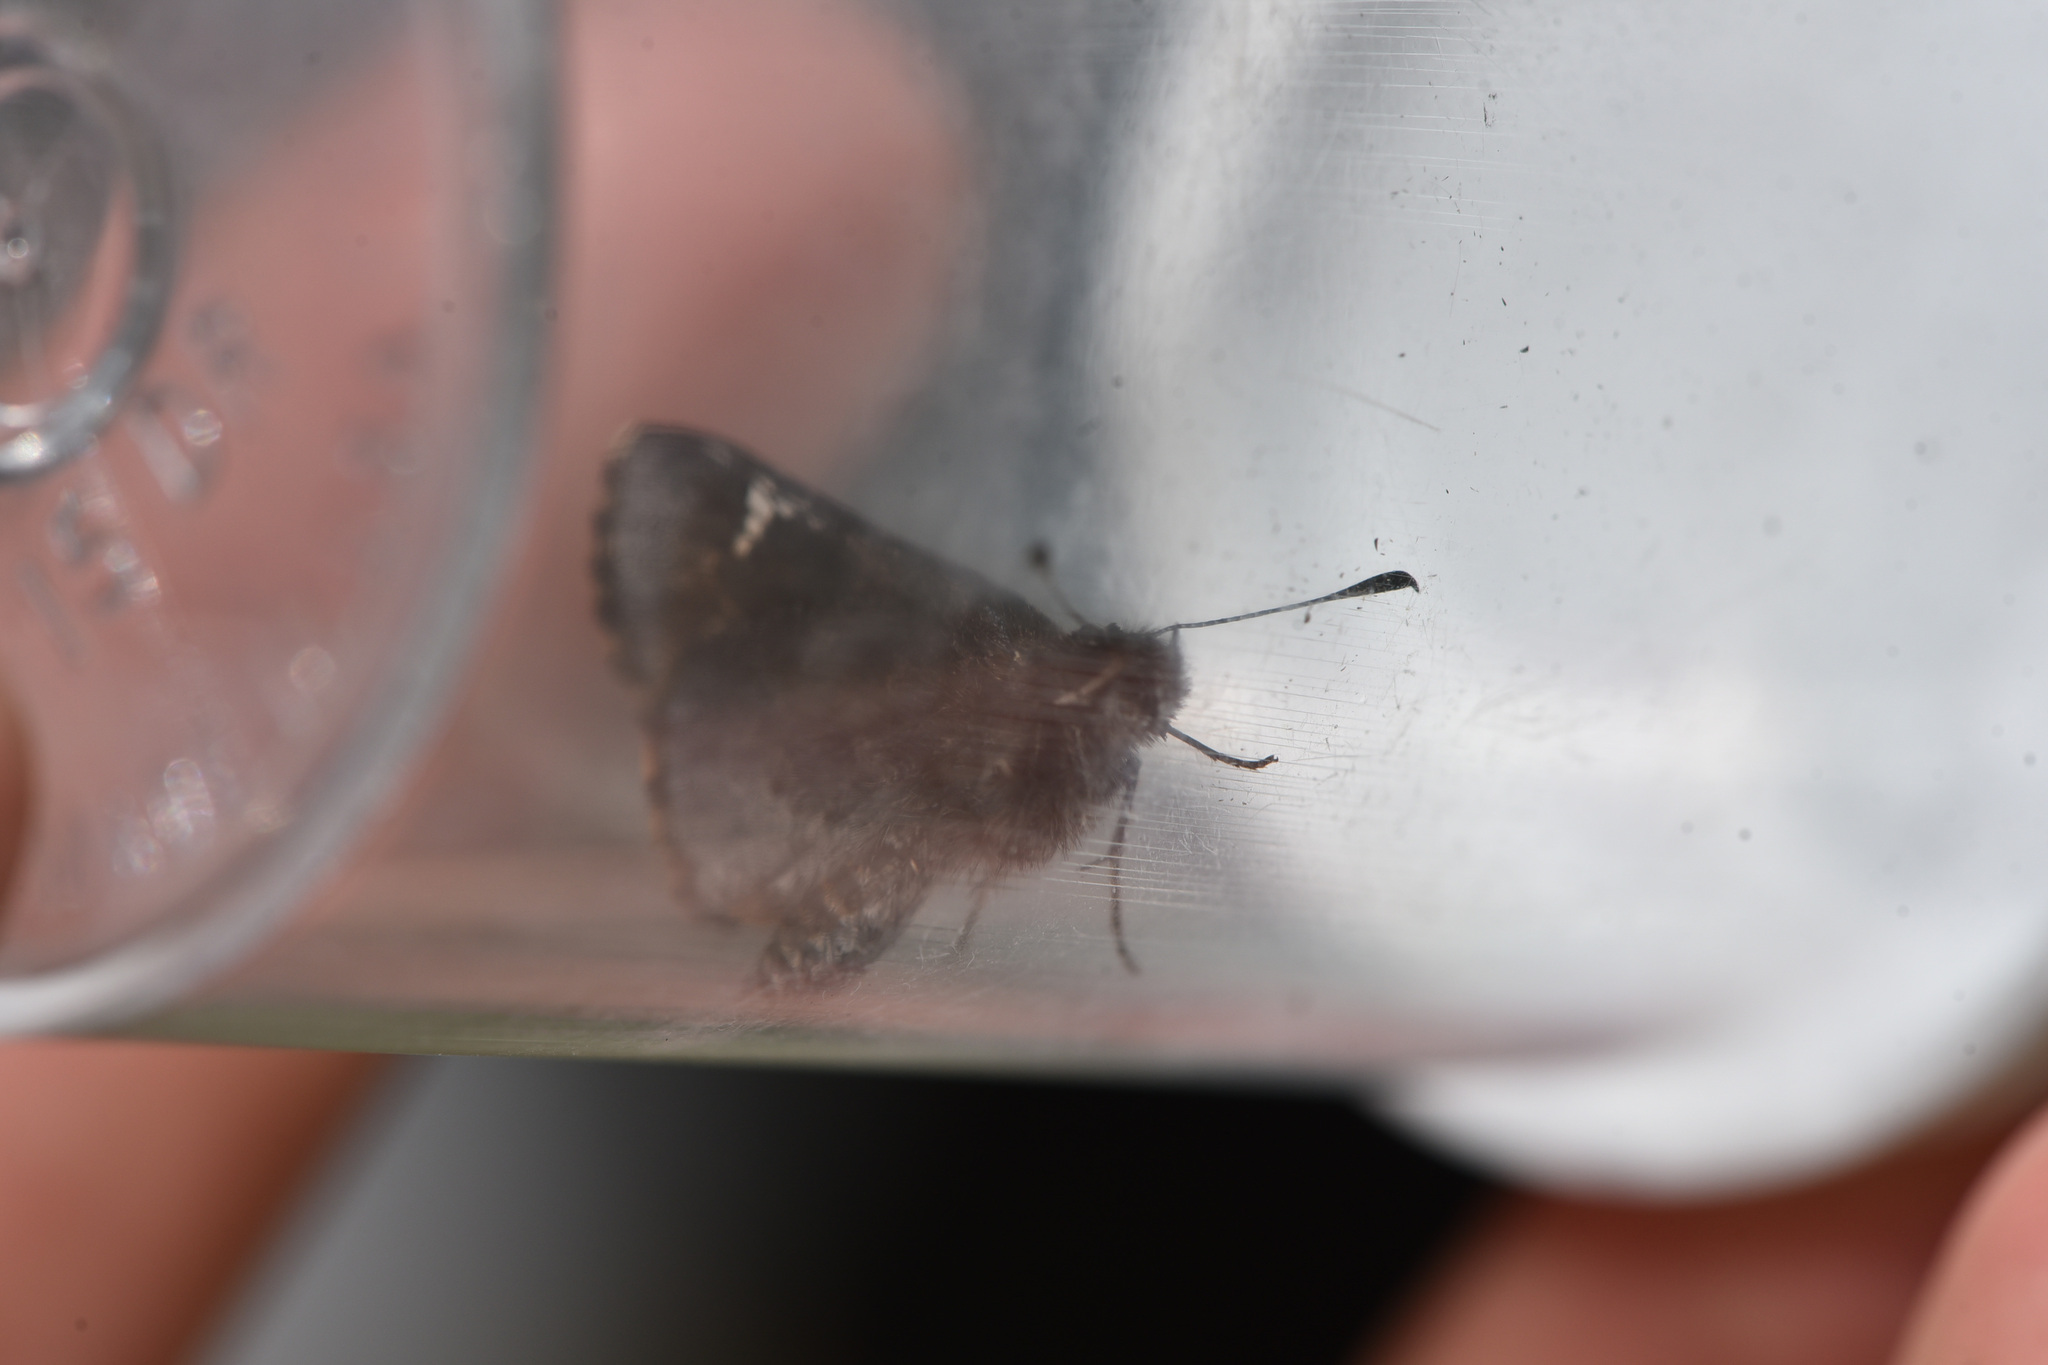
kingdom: Animalia
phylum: Arthropoda
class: Insecta
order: Lepidoptera
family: Hesperiidae
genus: Mastor
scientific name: Mastor vialis
